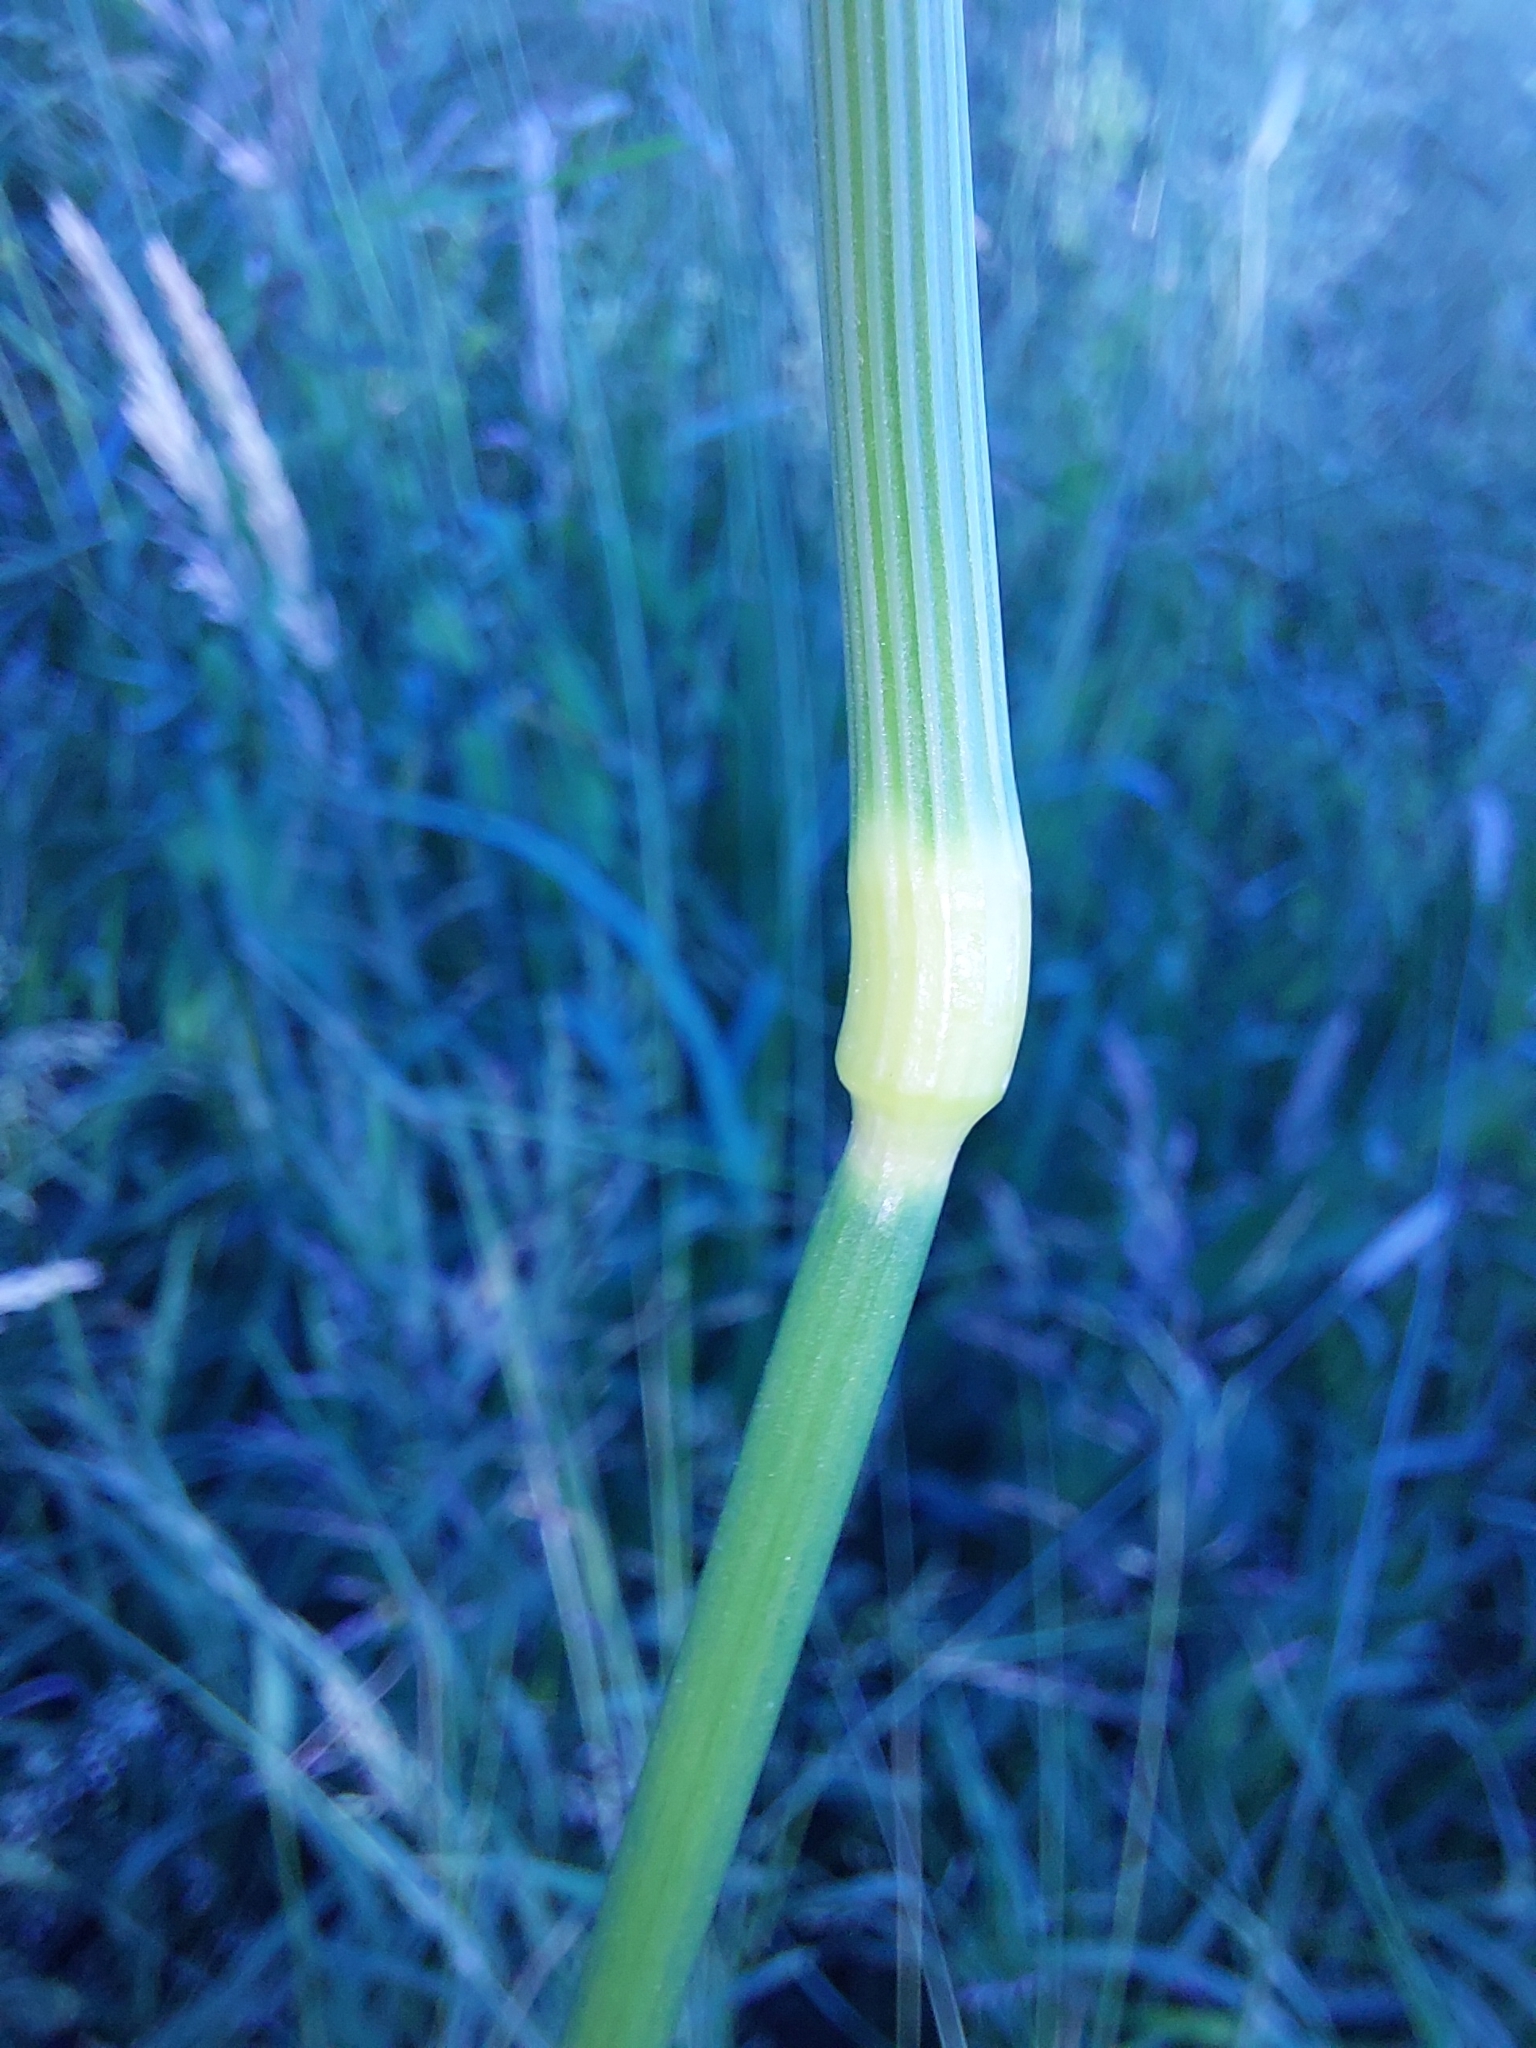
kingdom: Plantae
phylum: Tracheophyta
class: Liliopsida
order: Poales
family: Poaceae
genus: Alopecurus
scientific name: Alopecurus pratensis
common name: Meadow foxtail
